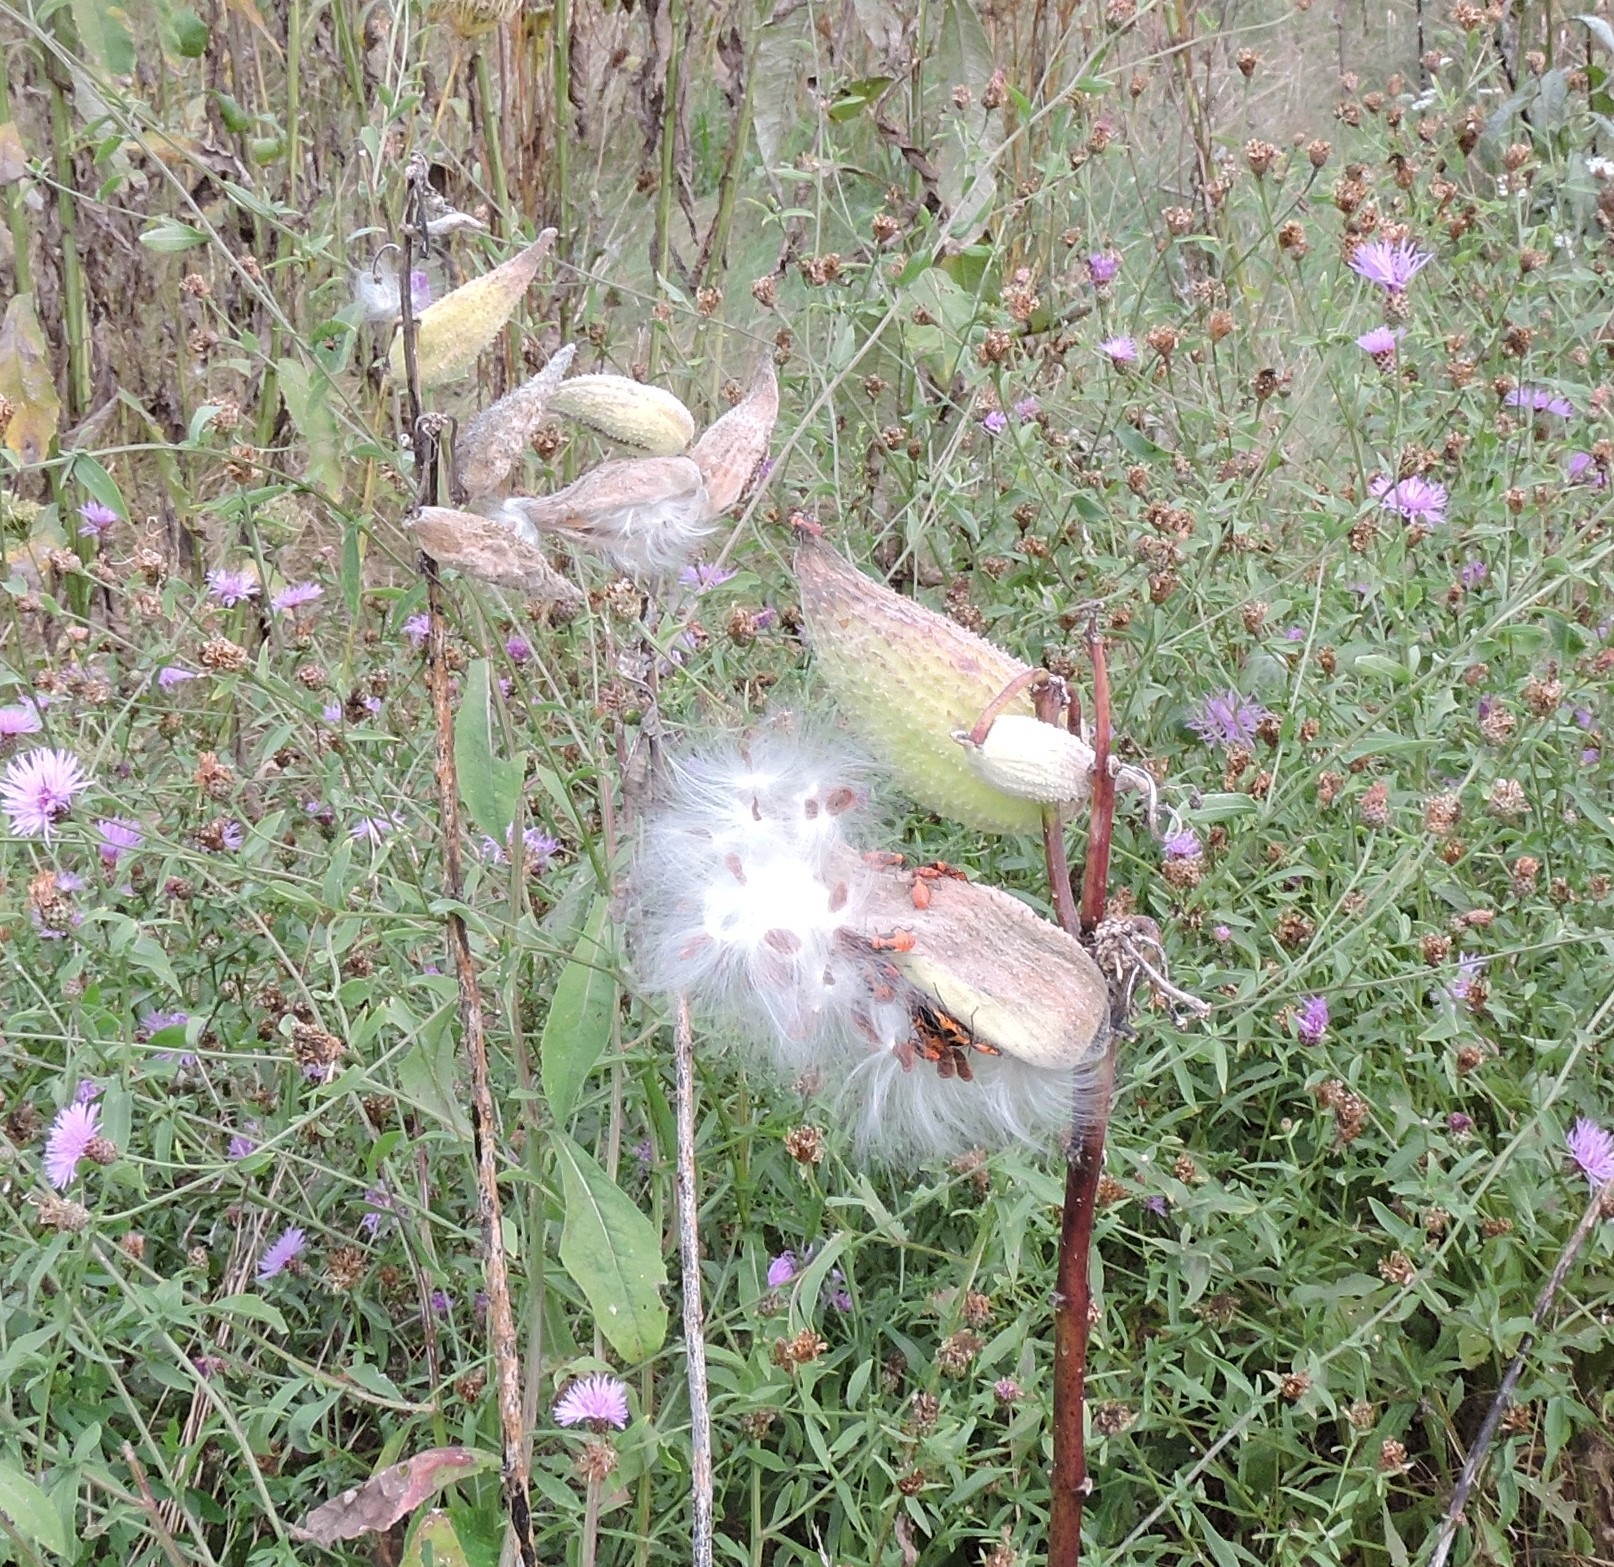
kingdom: Plantae
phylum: Tracheophyta
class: Magnoliopsida
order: Gentianales
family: Apocynaceae
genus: Asclepias
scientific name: Asclepias syriaca
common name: Common milkweed
